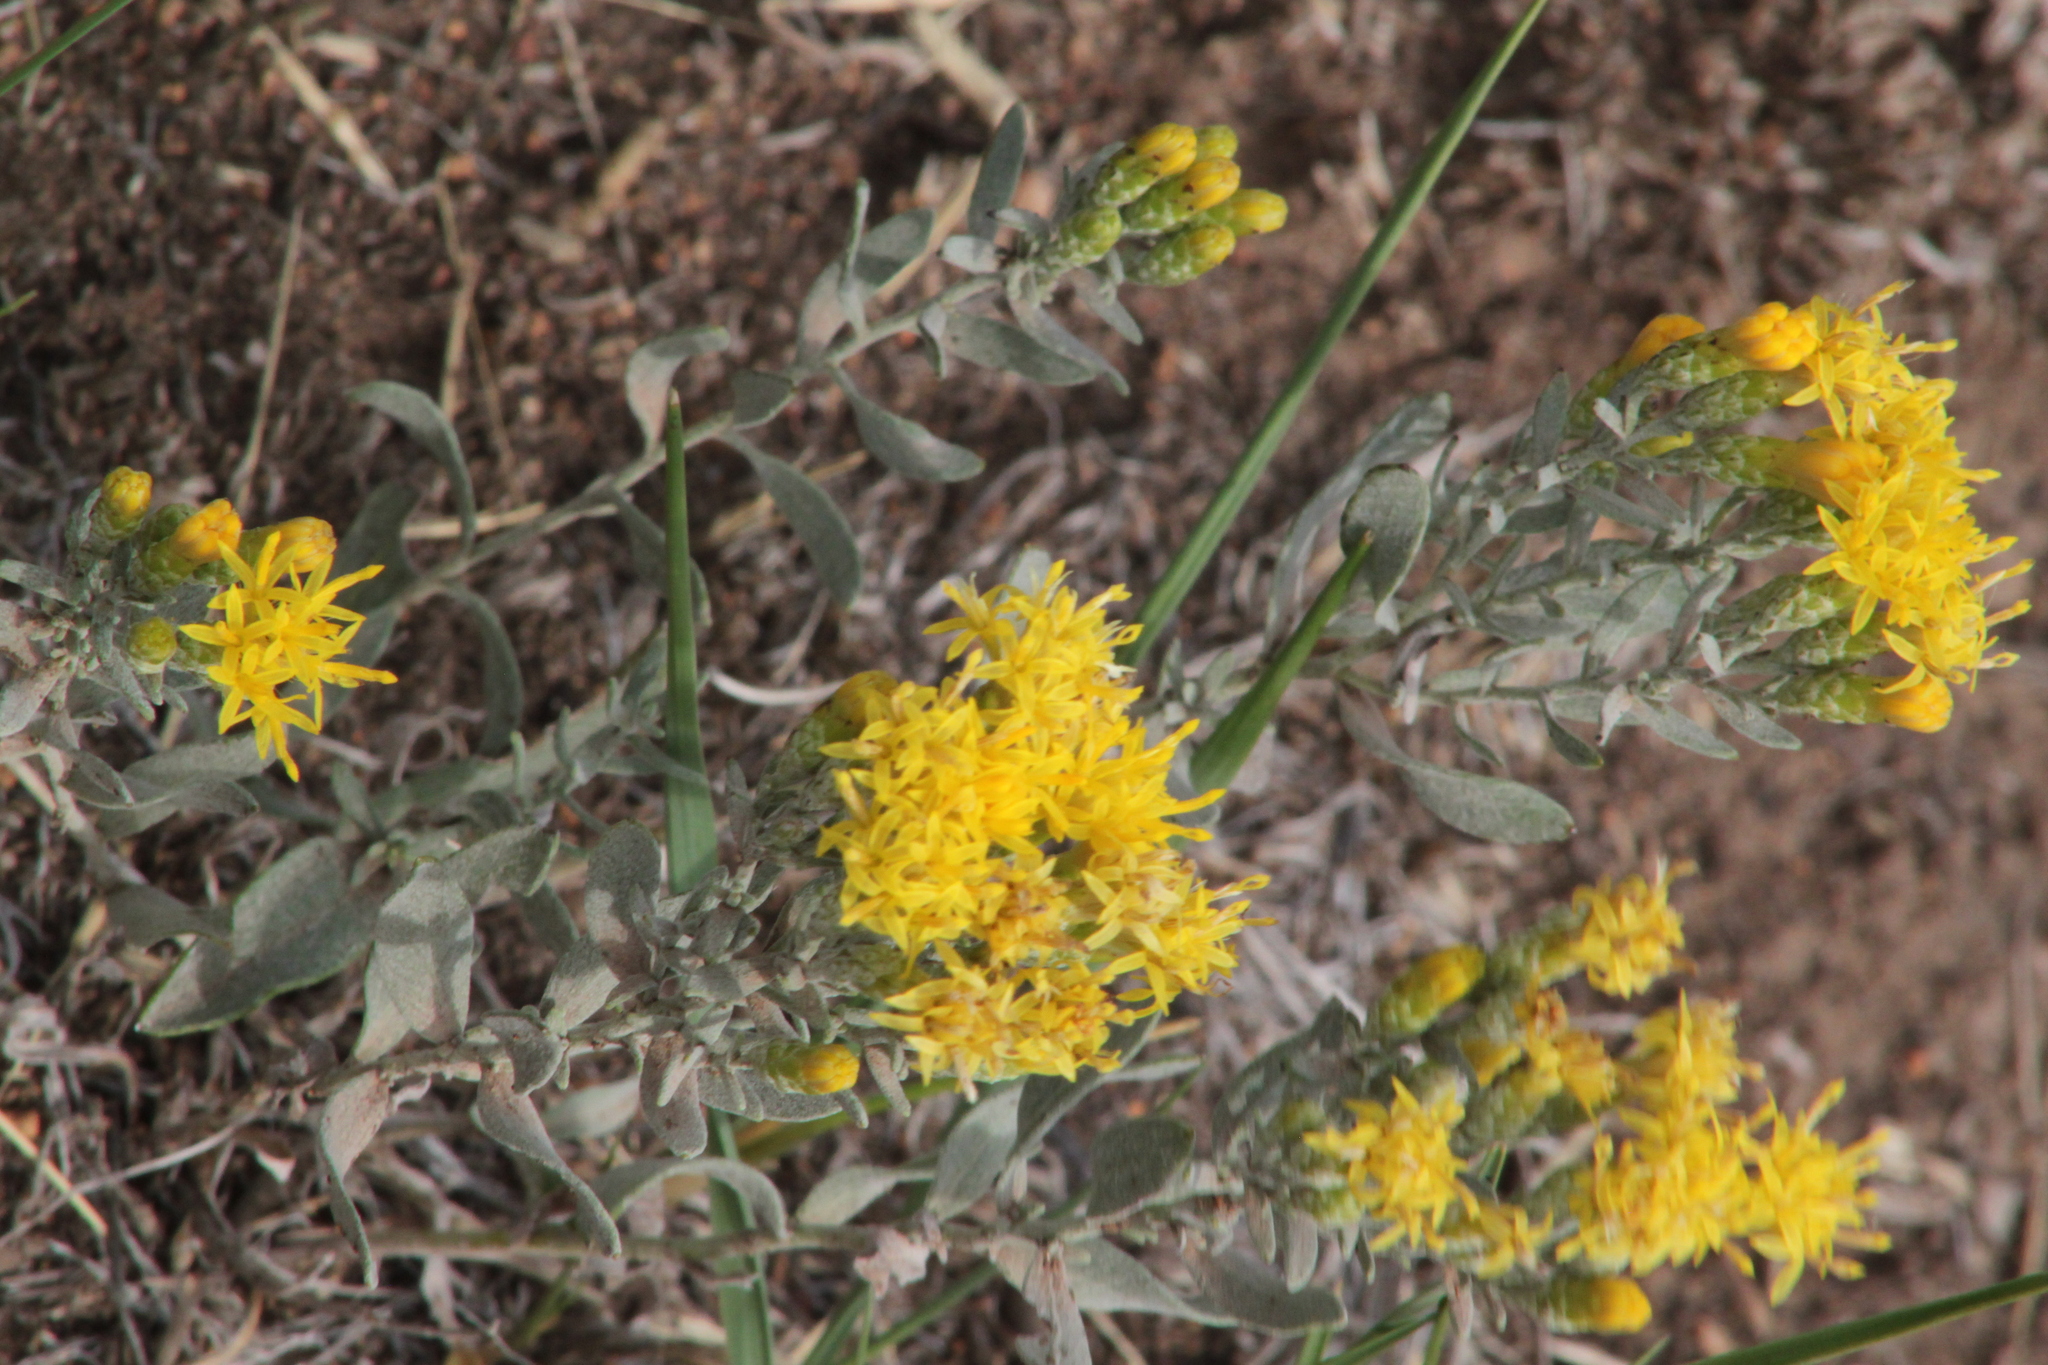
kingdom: Plantae
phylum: Tracheophyta
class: Magnoliopsida
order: Asterales
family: Asteraceae
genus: Galatella
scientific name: Galatella villosa
